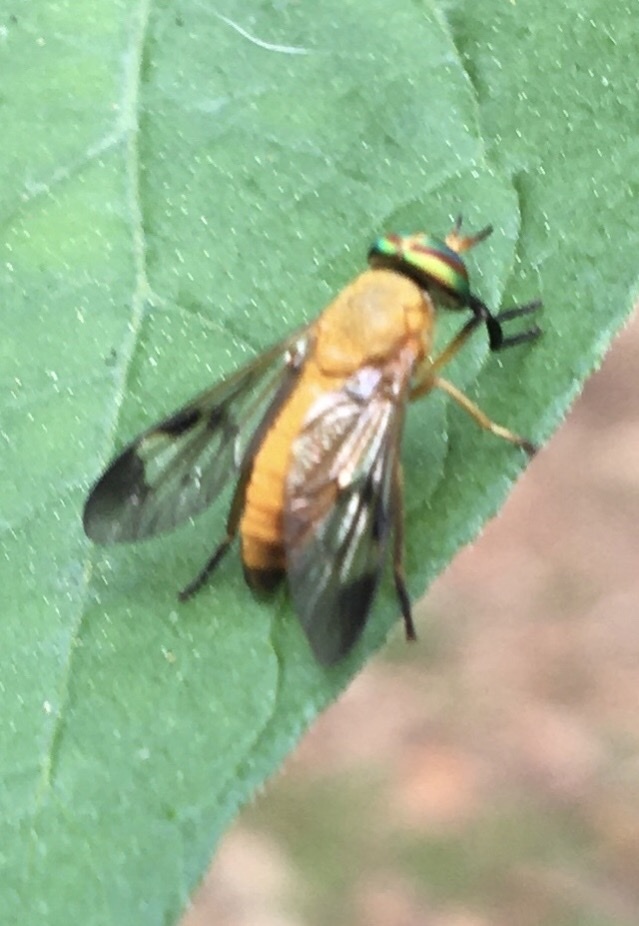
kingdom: Animalia
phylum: Arthropoda
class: Insecta
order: Diptera
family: Tabanidae
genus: Diachlorus
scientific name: Diachlorus ferrugatus
